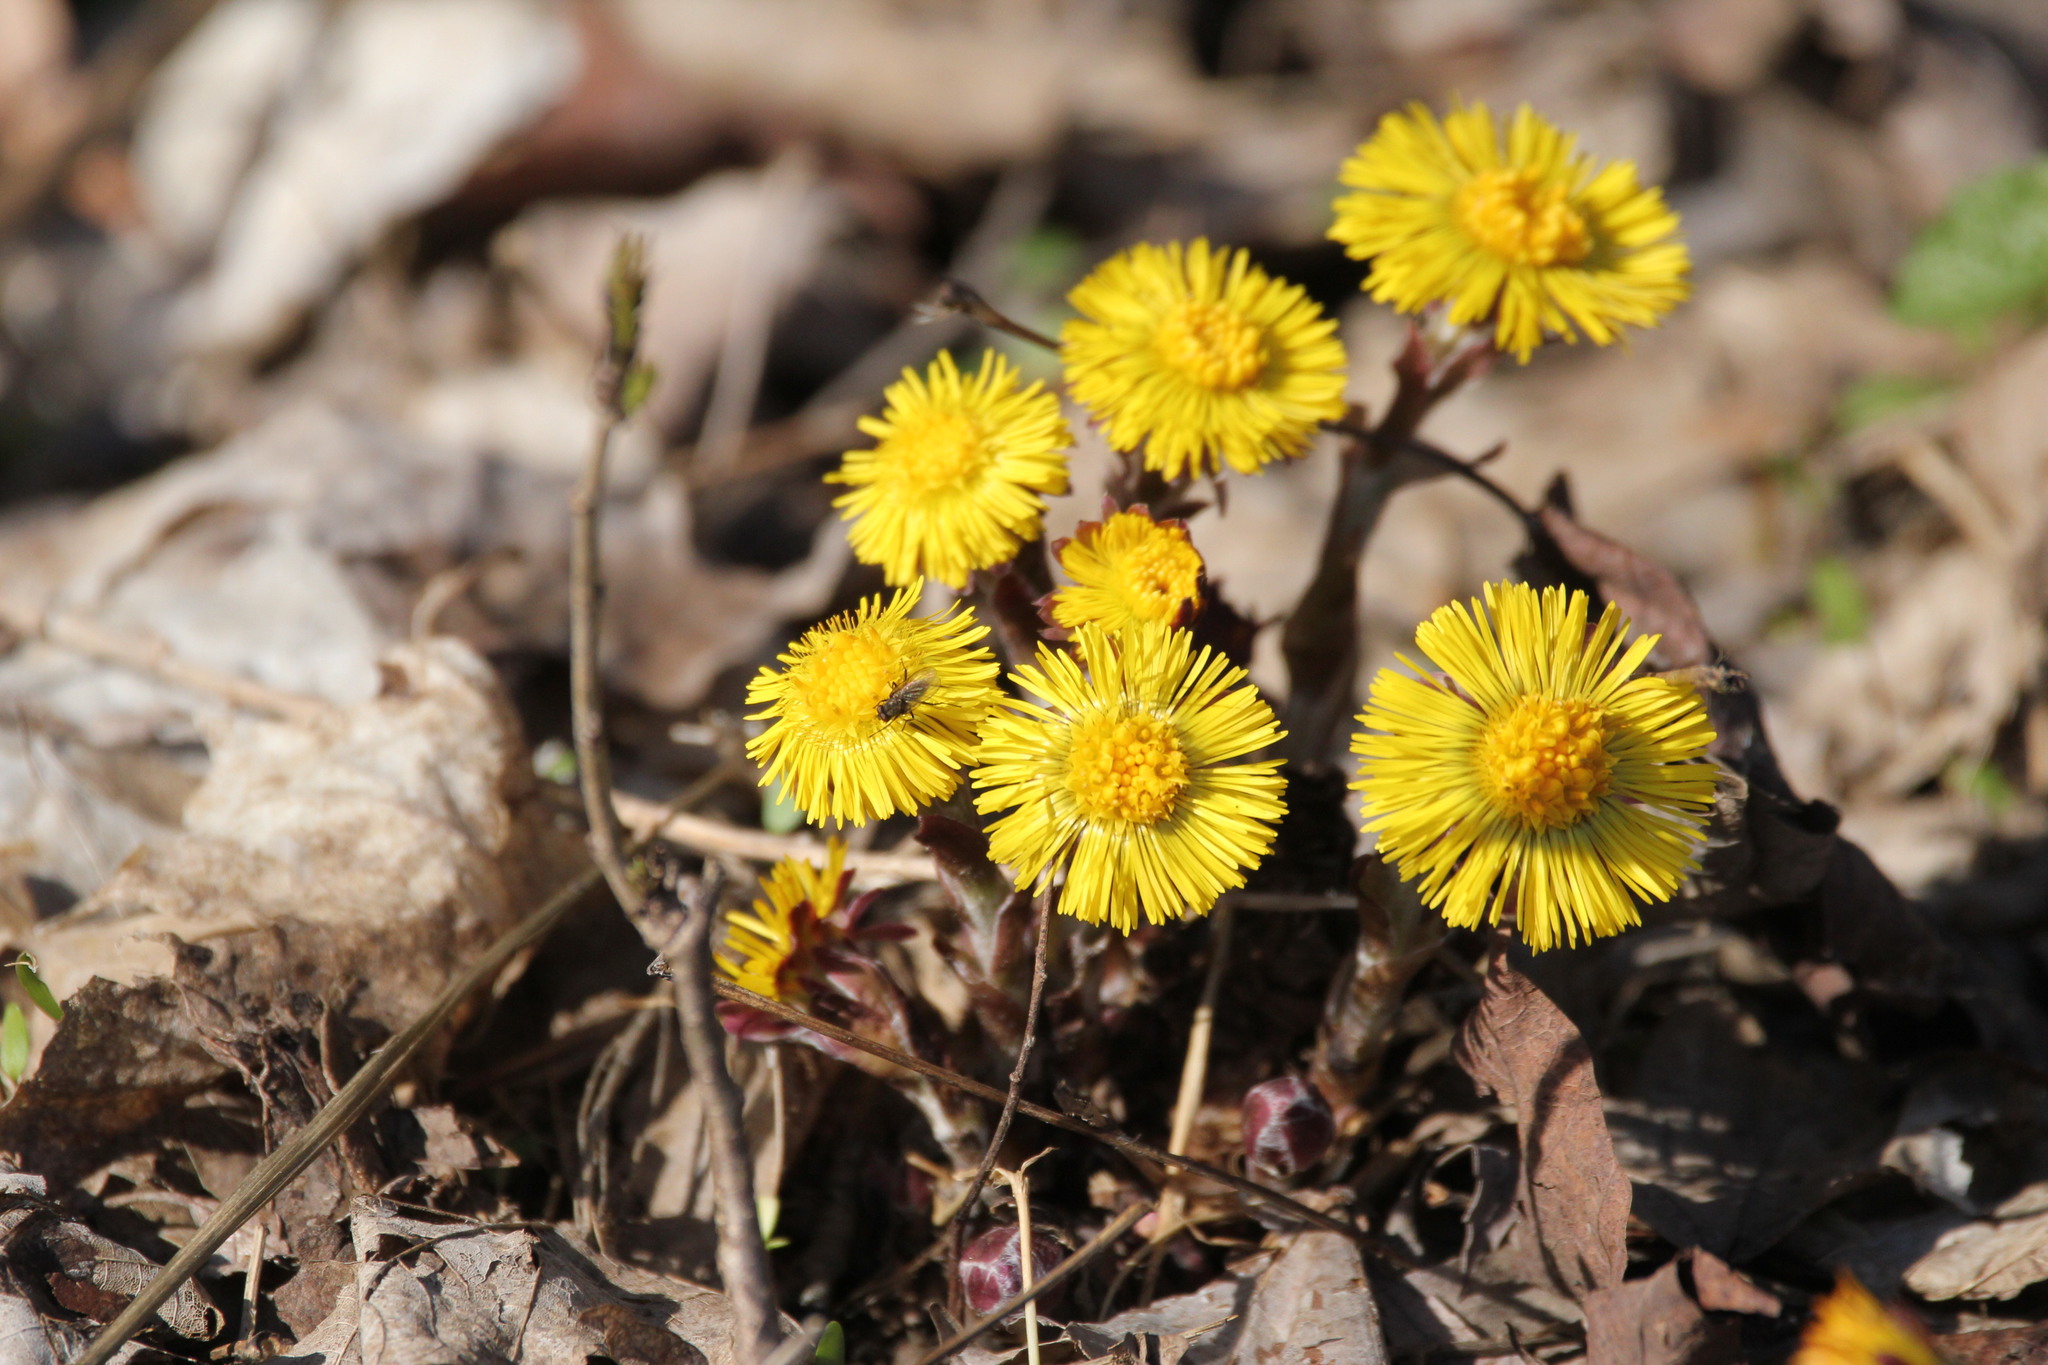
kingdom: Plantae
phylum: Tracheophyta
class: Magnoliopsida
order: Asterales
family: Asteraceae
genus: Tussilago
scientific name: Tussilago farfara
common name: Coltsfoot
